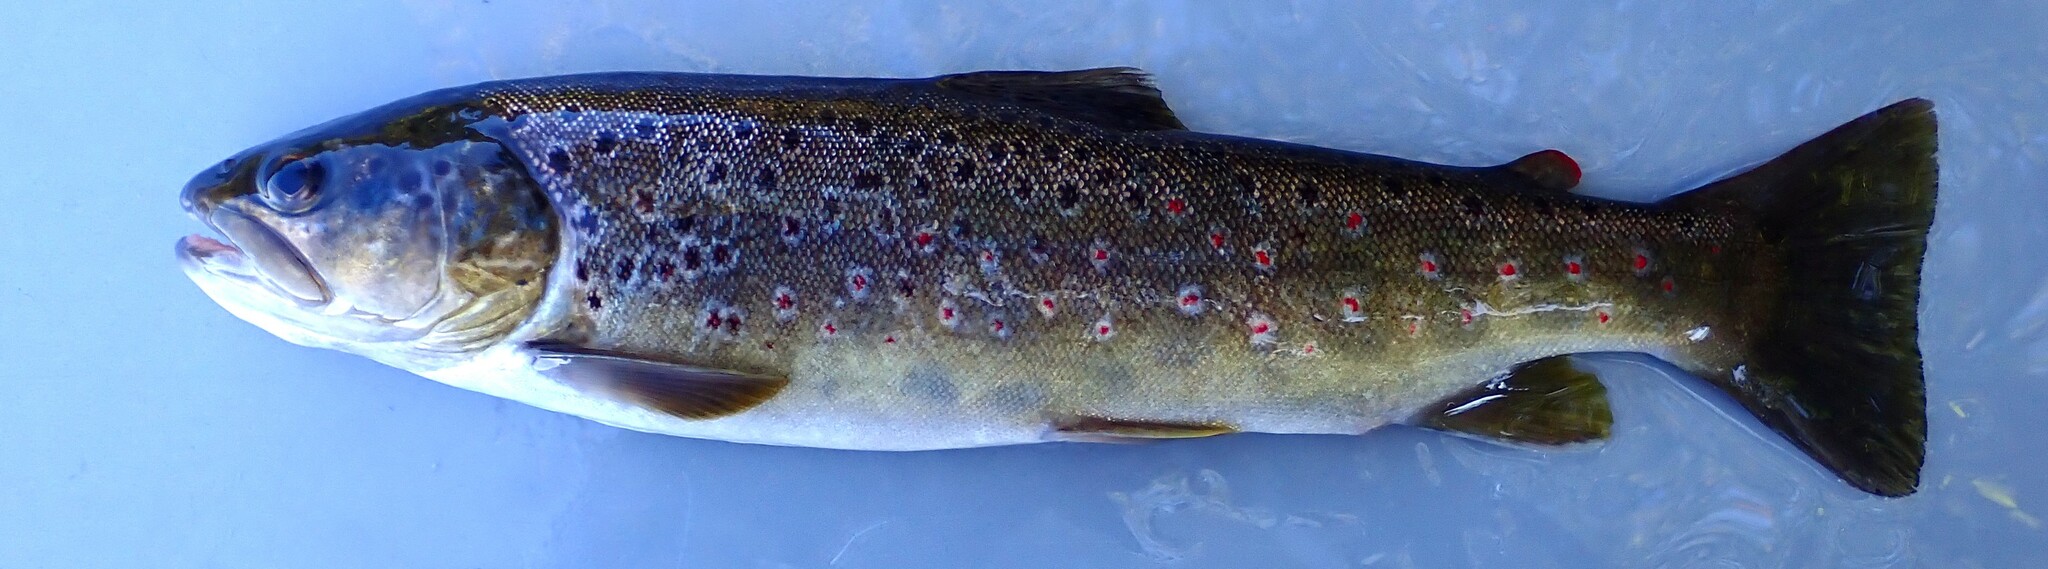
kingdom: Animalia
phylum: Chordata
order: Salmoniformes
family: Salmonidae
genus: Salmo
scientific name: Salmo trutta
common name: Brown trout
